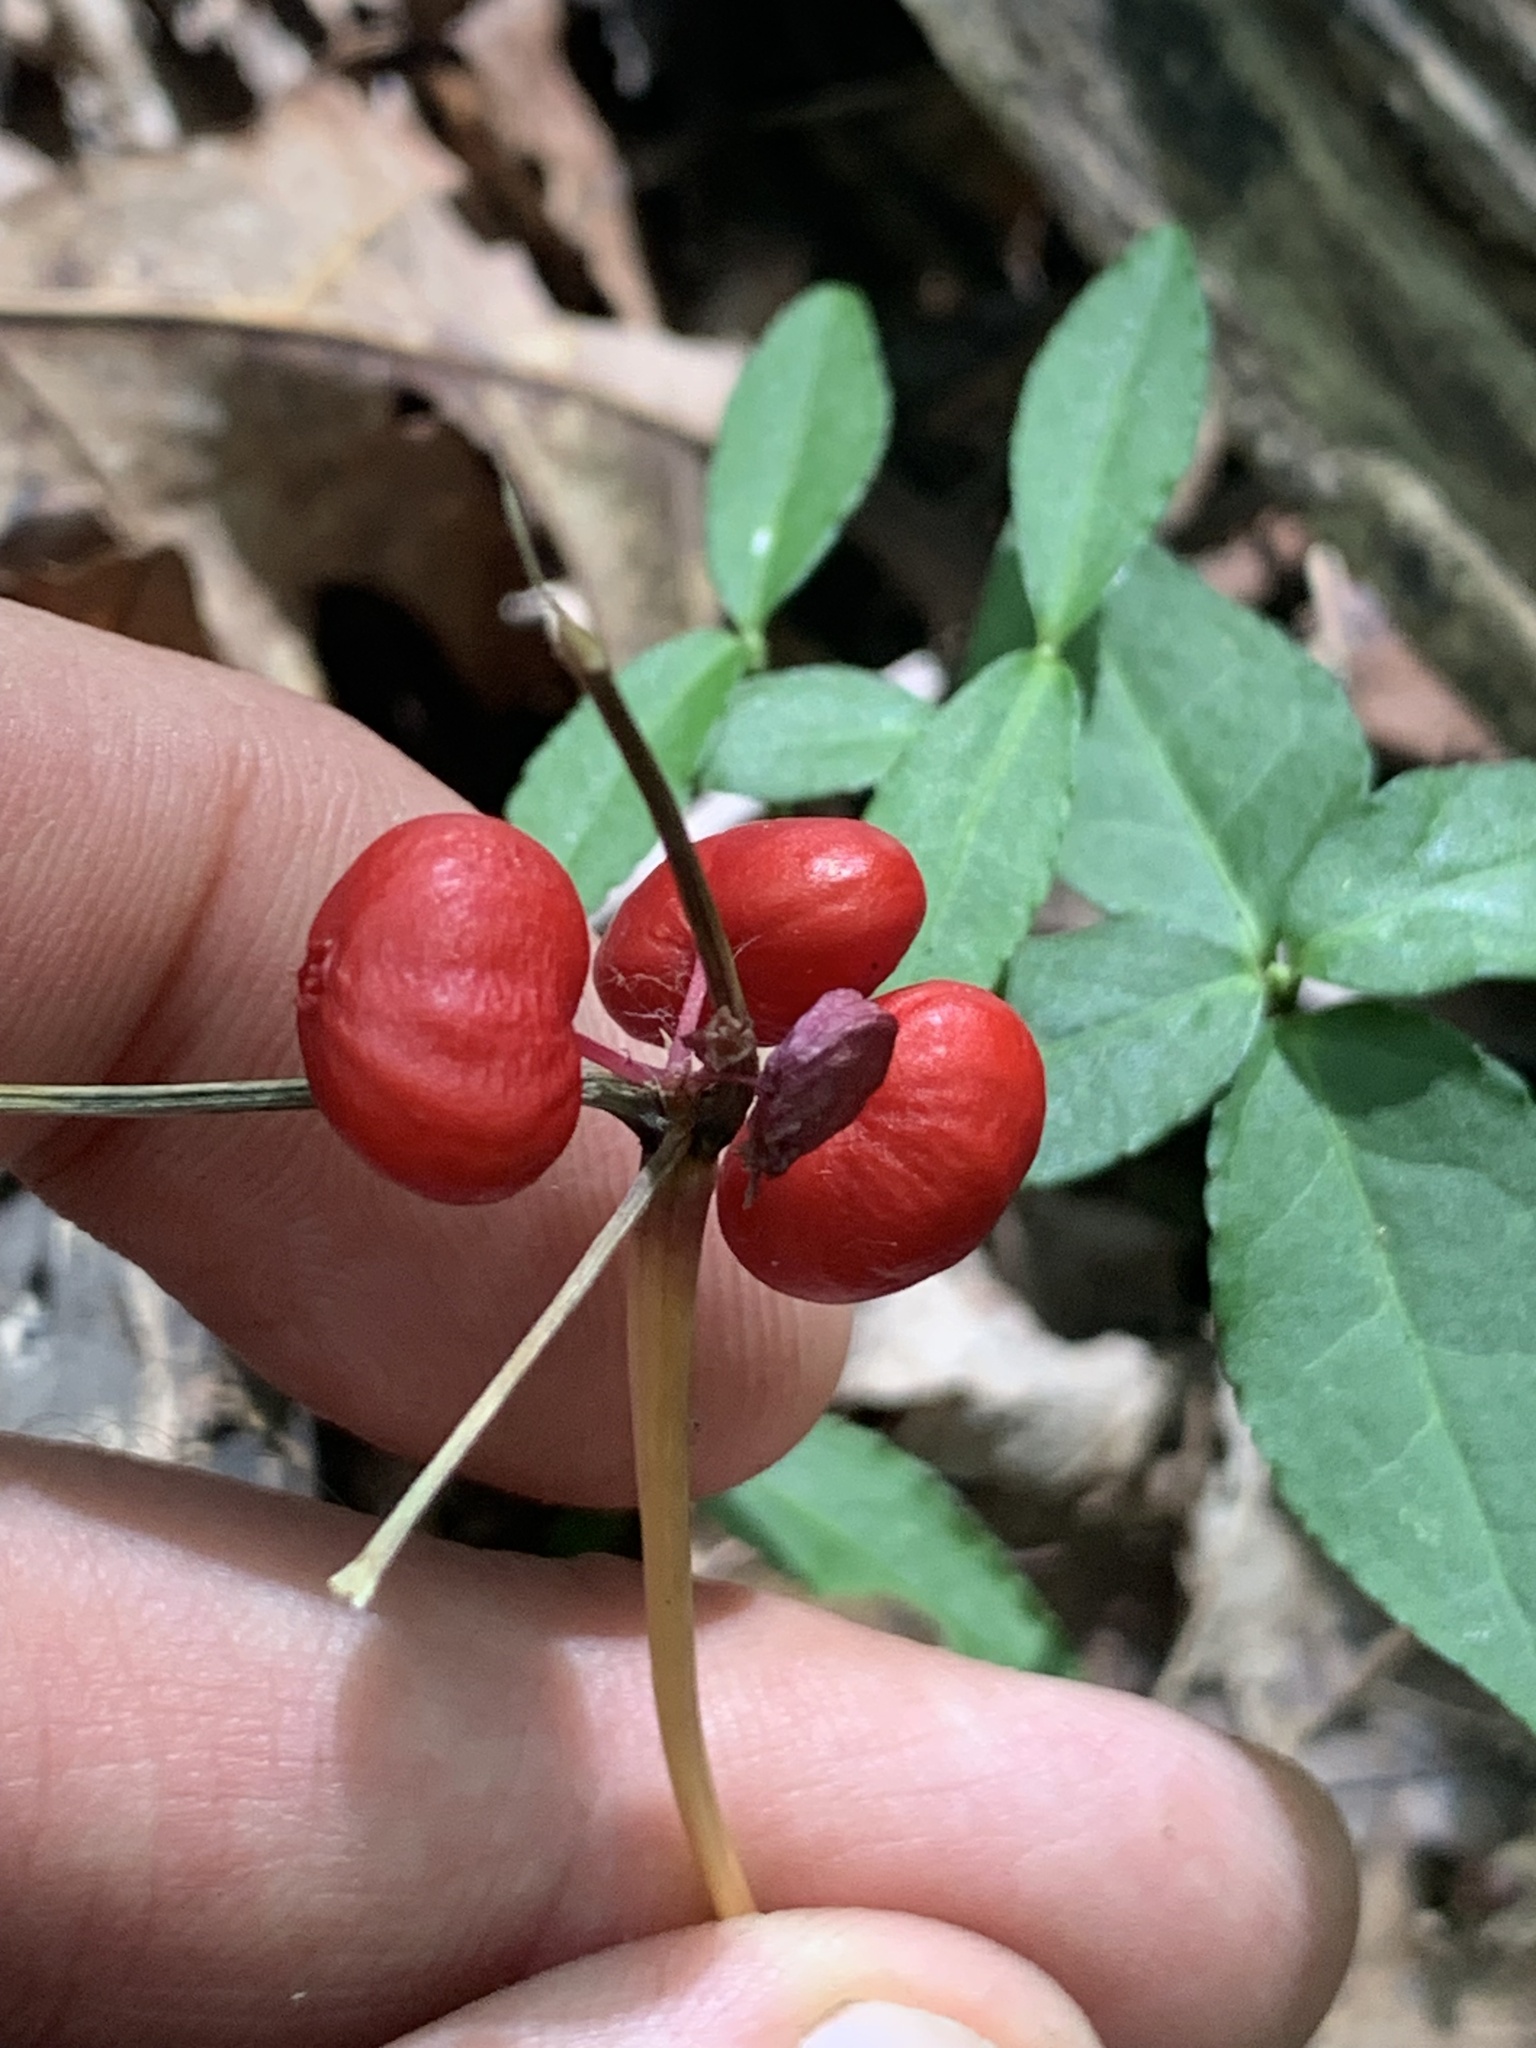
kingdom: Plantae
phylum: Tracheophyta
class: Magnoliopsida
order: Apiales
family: Araliaceae
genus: Panax
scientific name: Panax quinquefolius
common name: American ginseng
